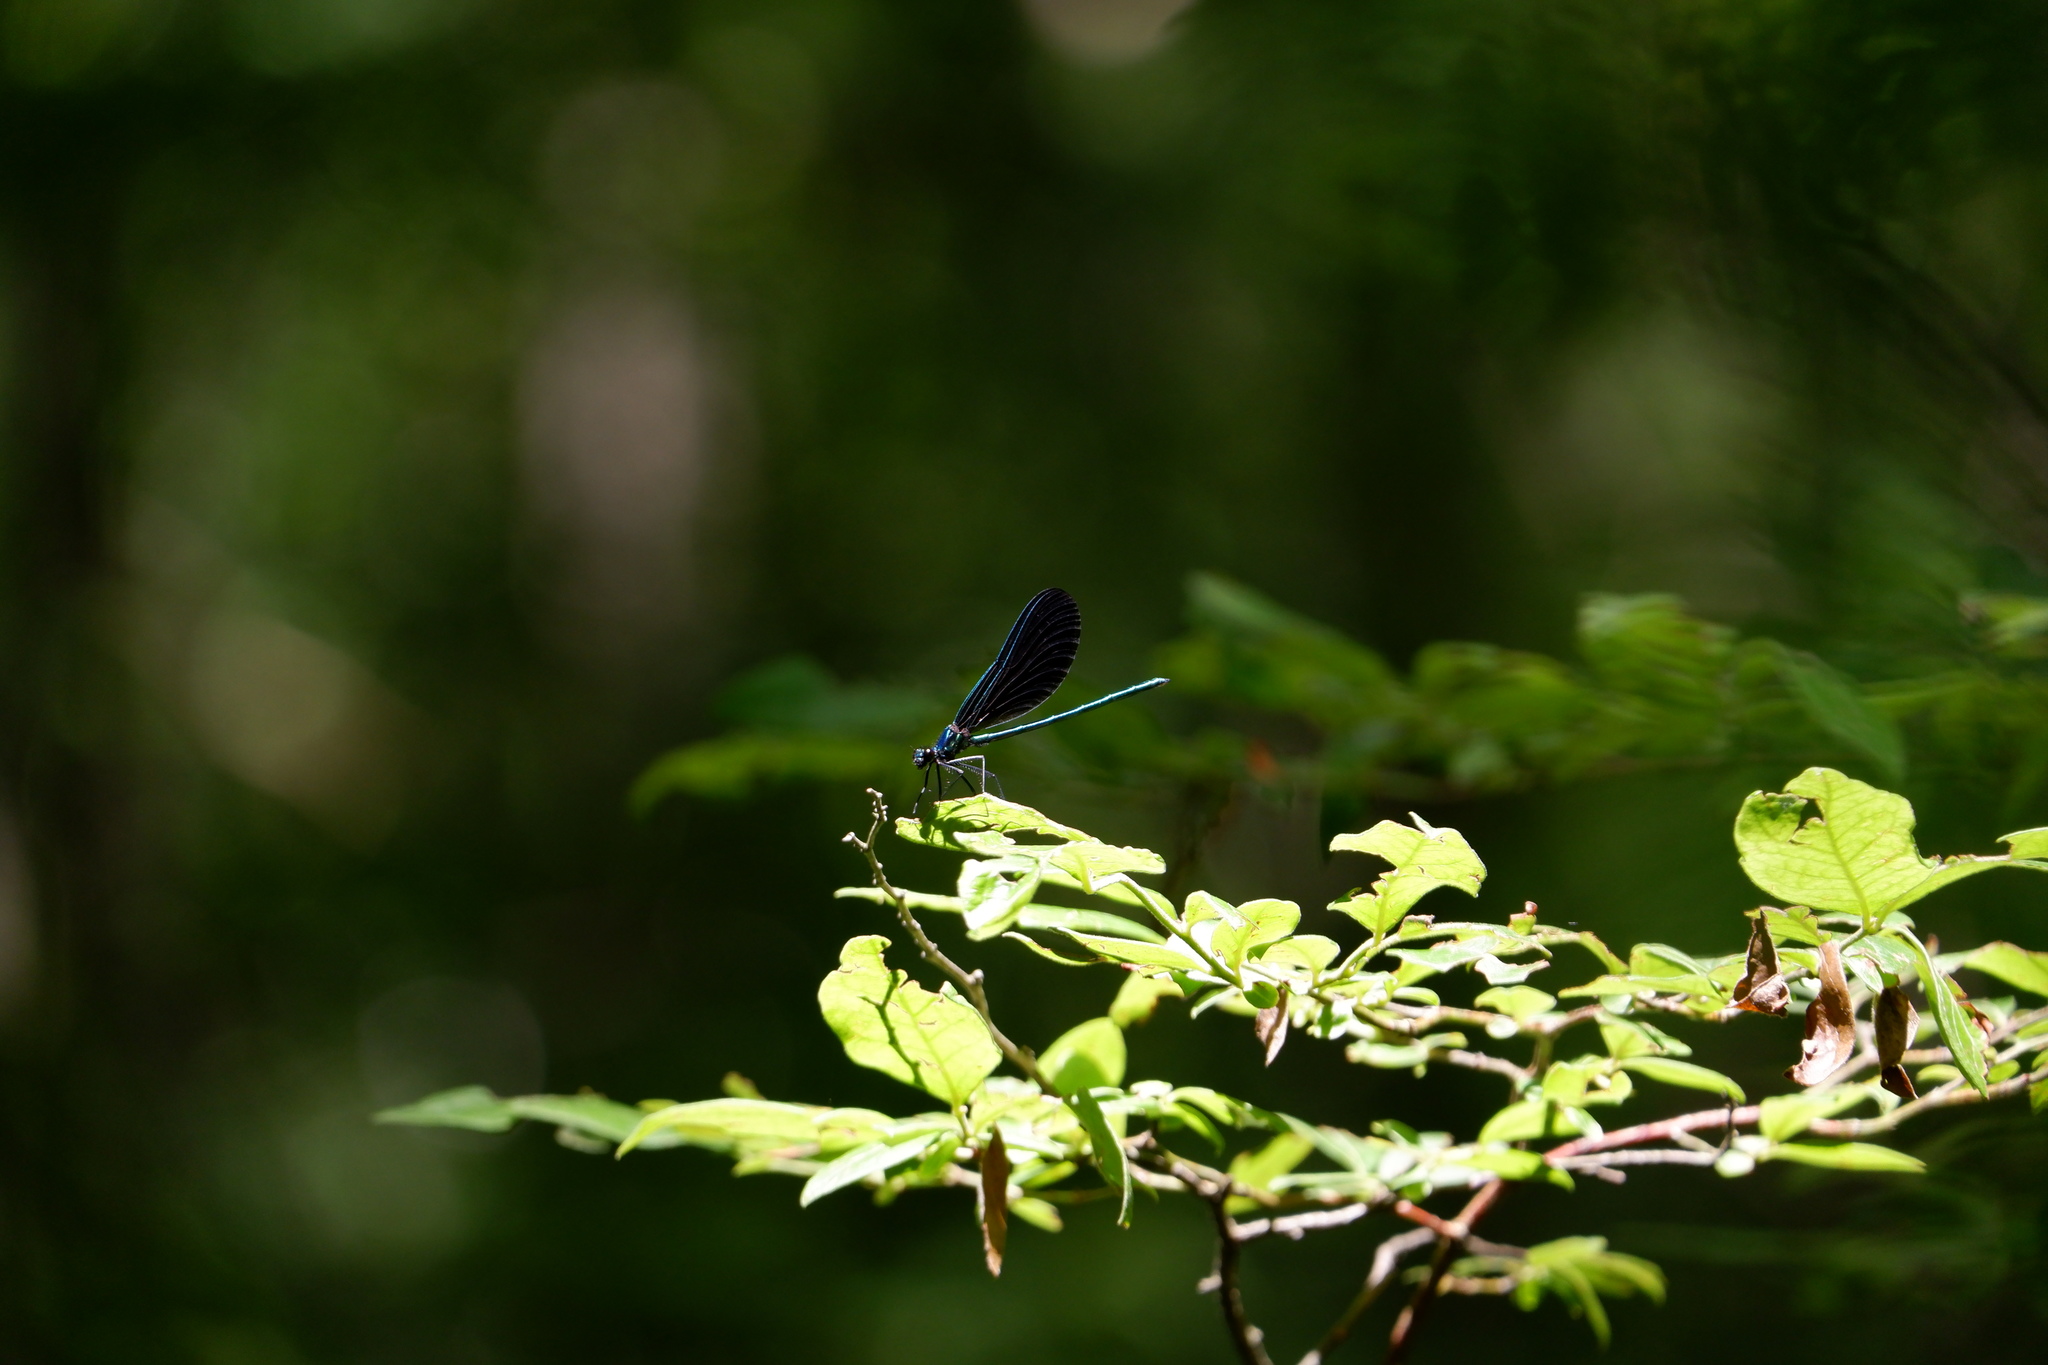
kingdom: Animalia
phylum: Arthropoda
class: Insecta
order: Odonata
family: Calopterygidae
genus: Calopteryx
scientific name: Calopteryx maculata
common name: Ebony jewelwing
